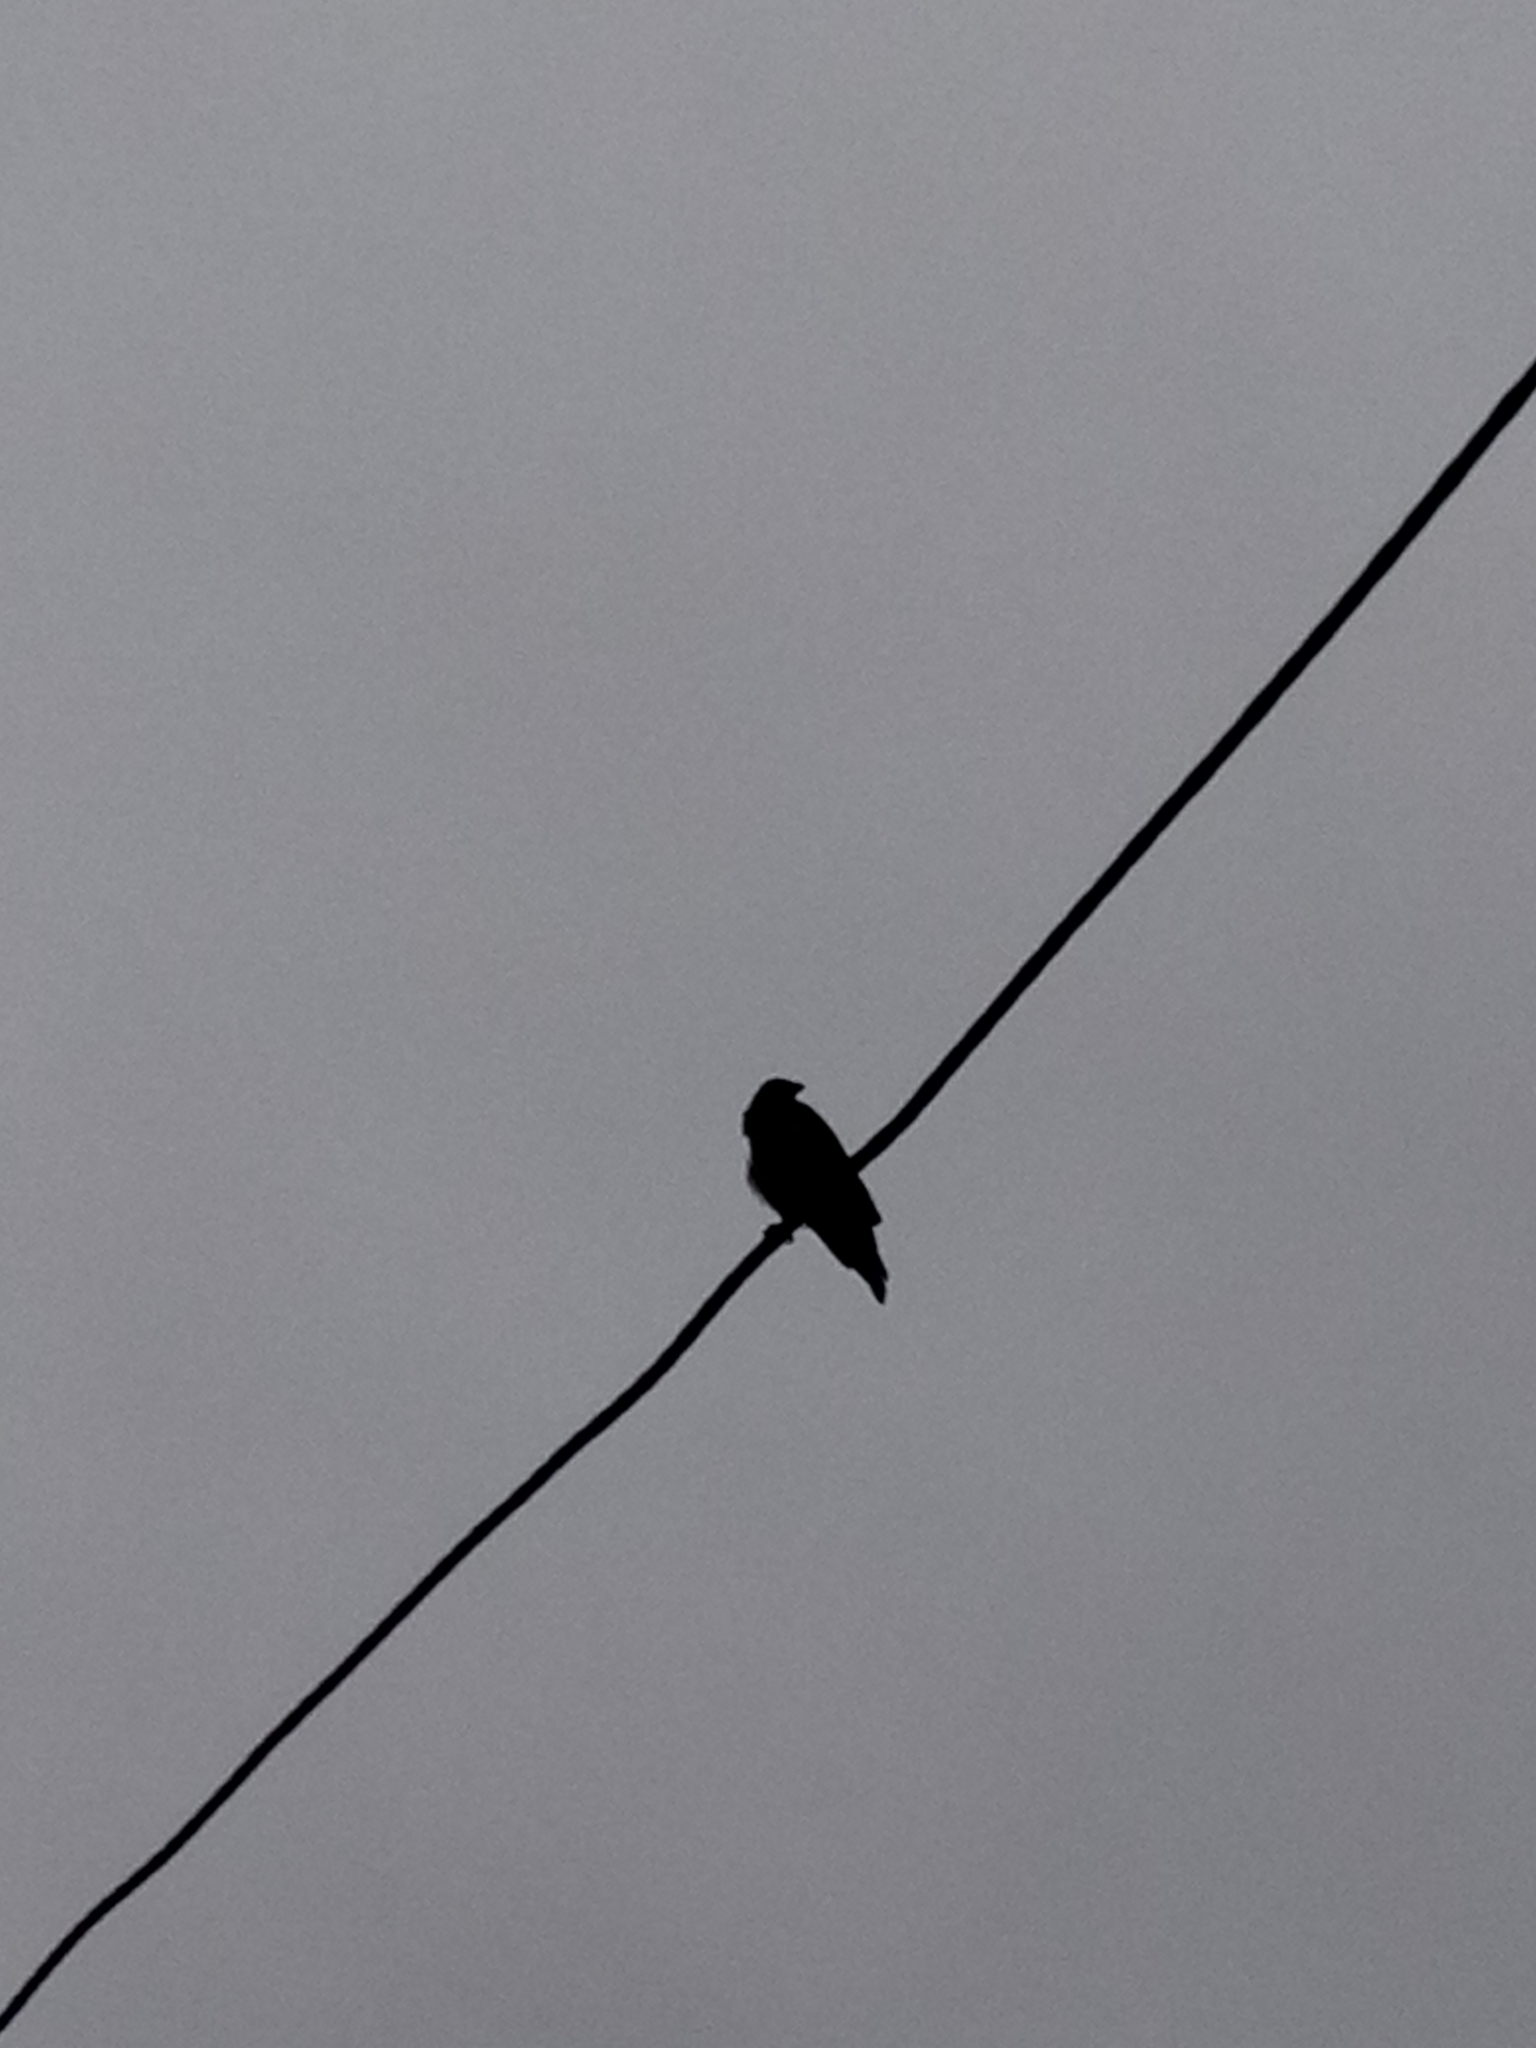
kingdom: Animalia
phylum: Chordata
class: Aves
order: Passeriformes
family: Corvidae
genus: Corvus
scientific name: Corvus cornix
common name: Hooded crow
